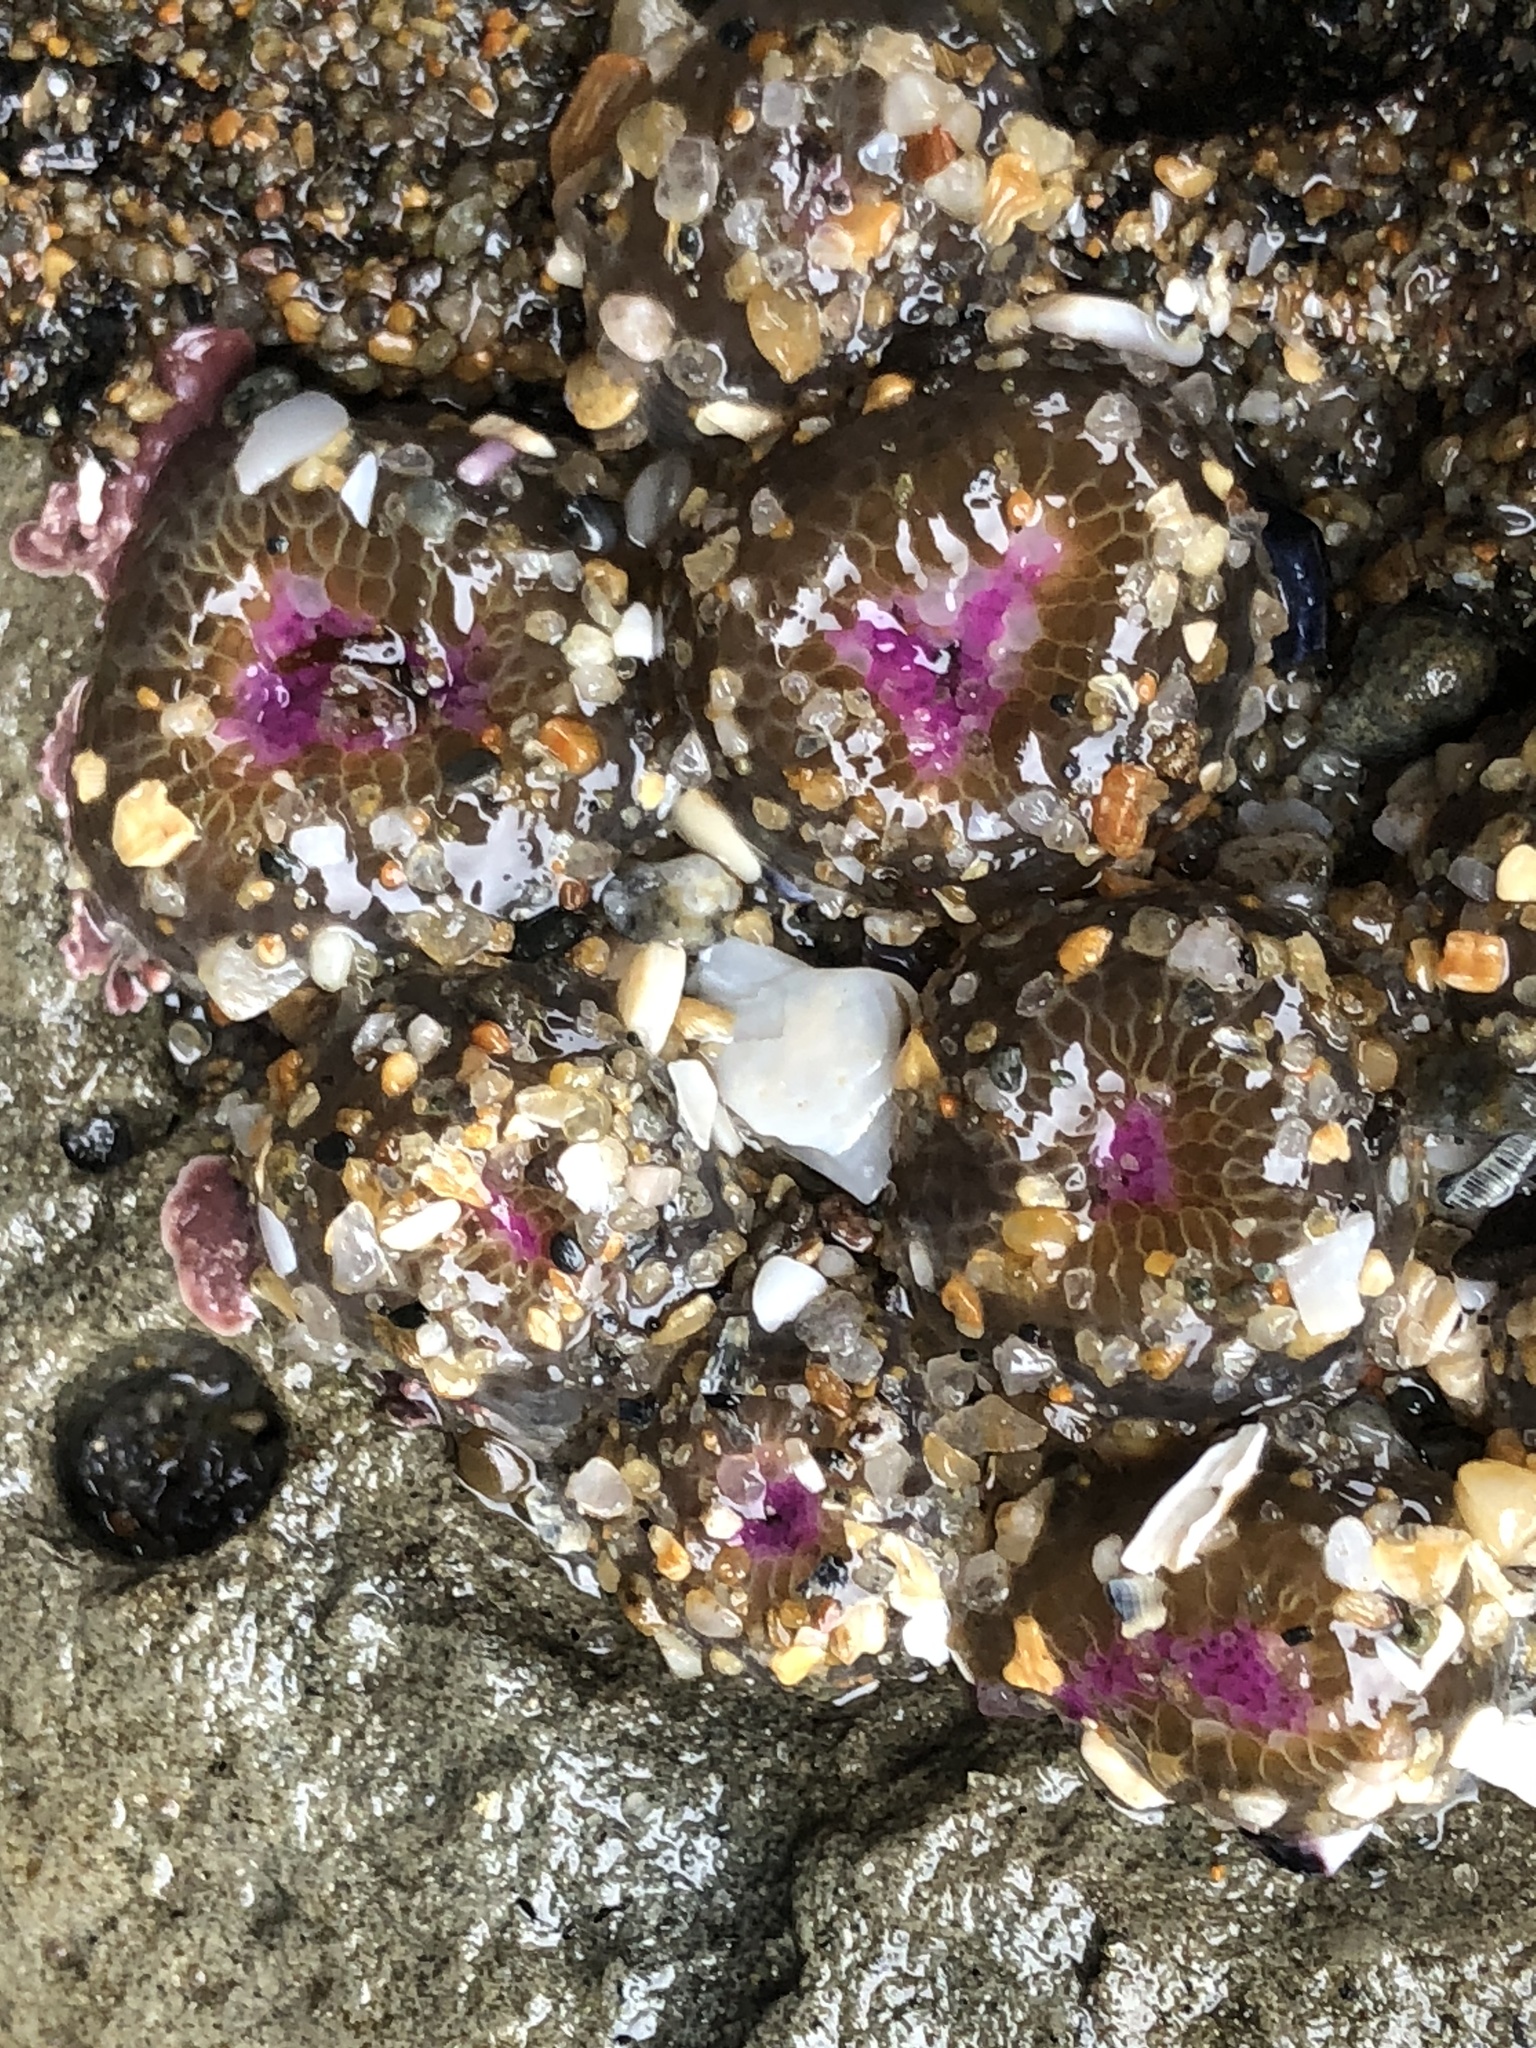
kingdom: Animalia
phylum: Cnidaria
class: Anthozoa
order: Actiniaria
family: Actiniidae
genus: Anthopleura
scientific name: Anthopleura elegantissima
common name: Clonal anemone
